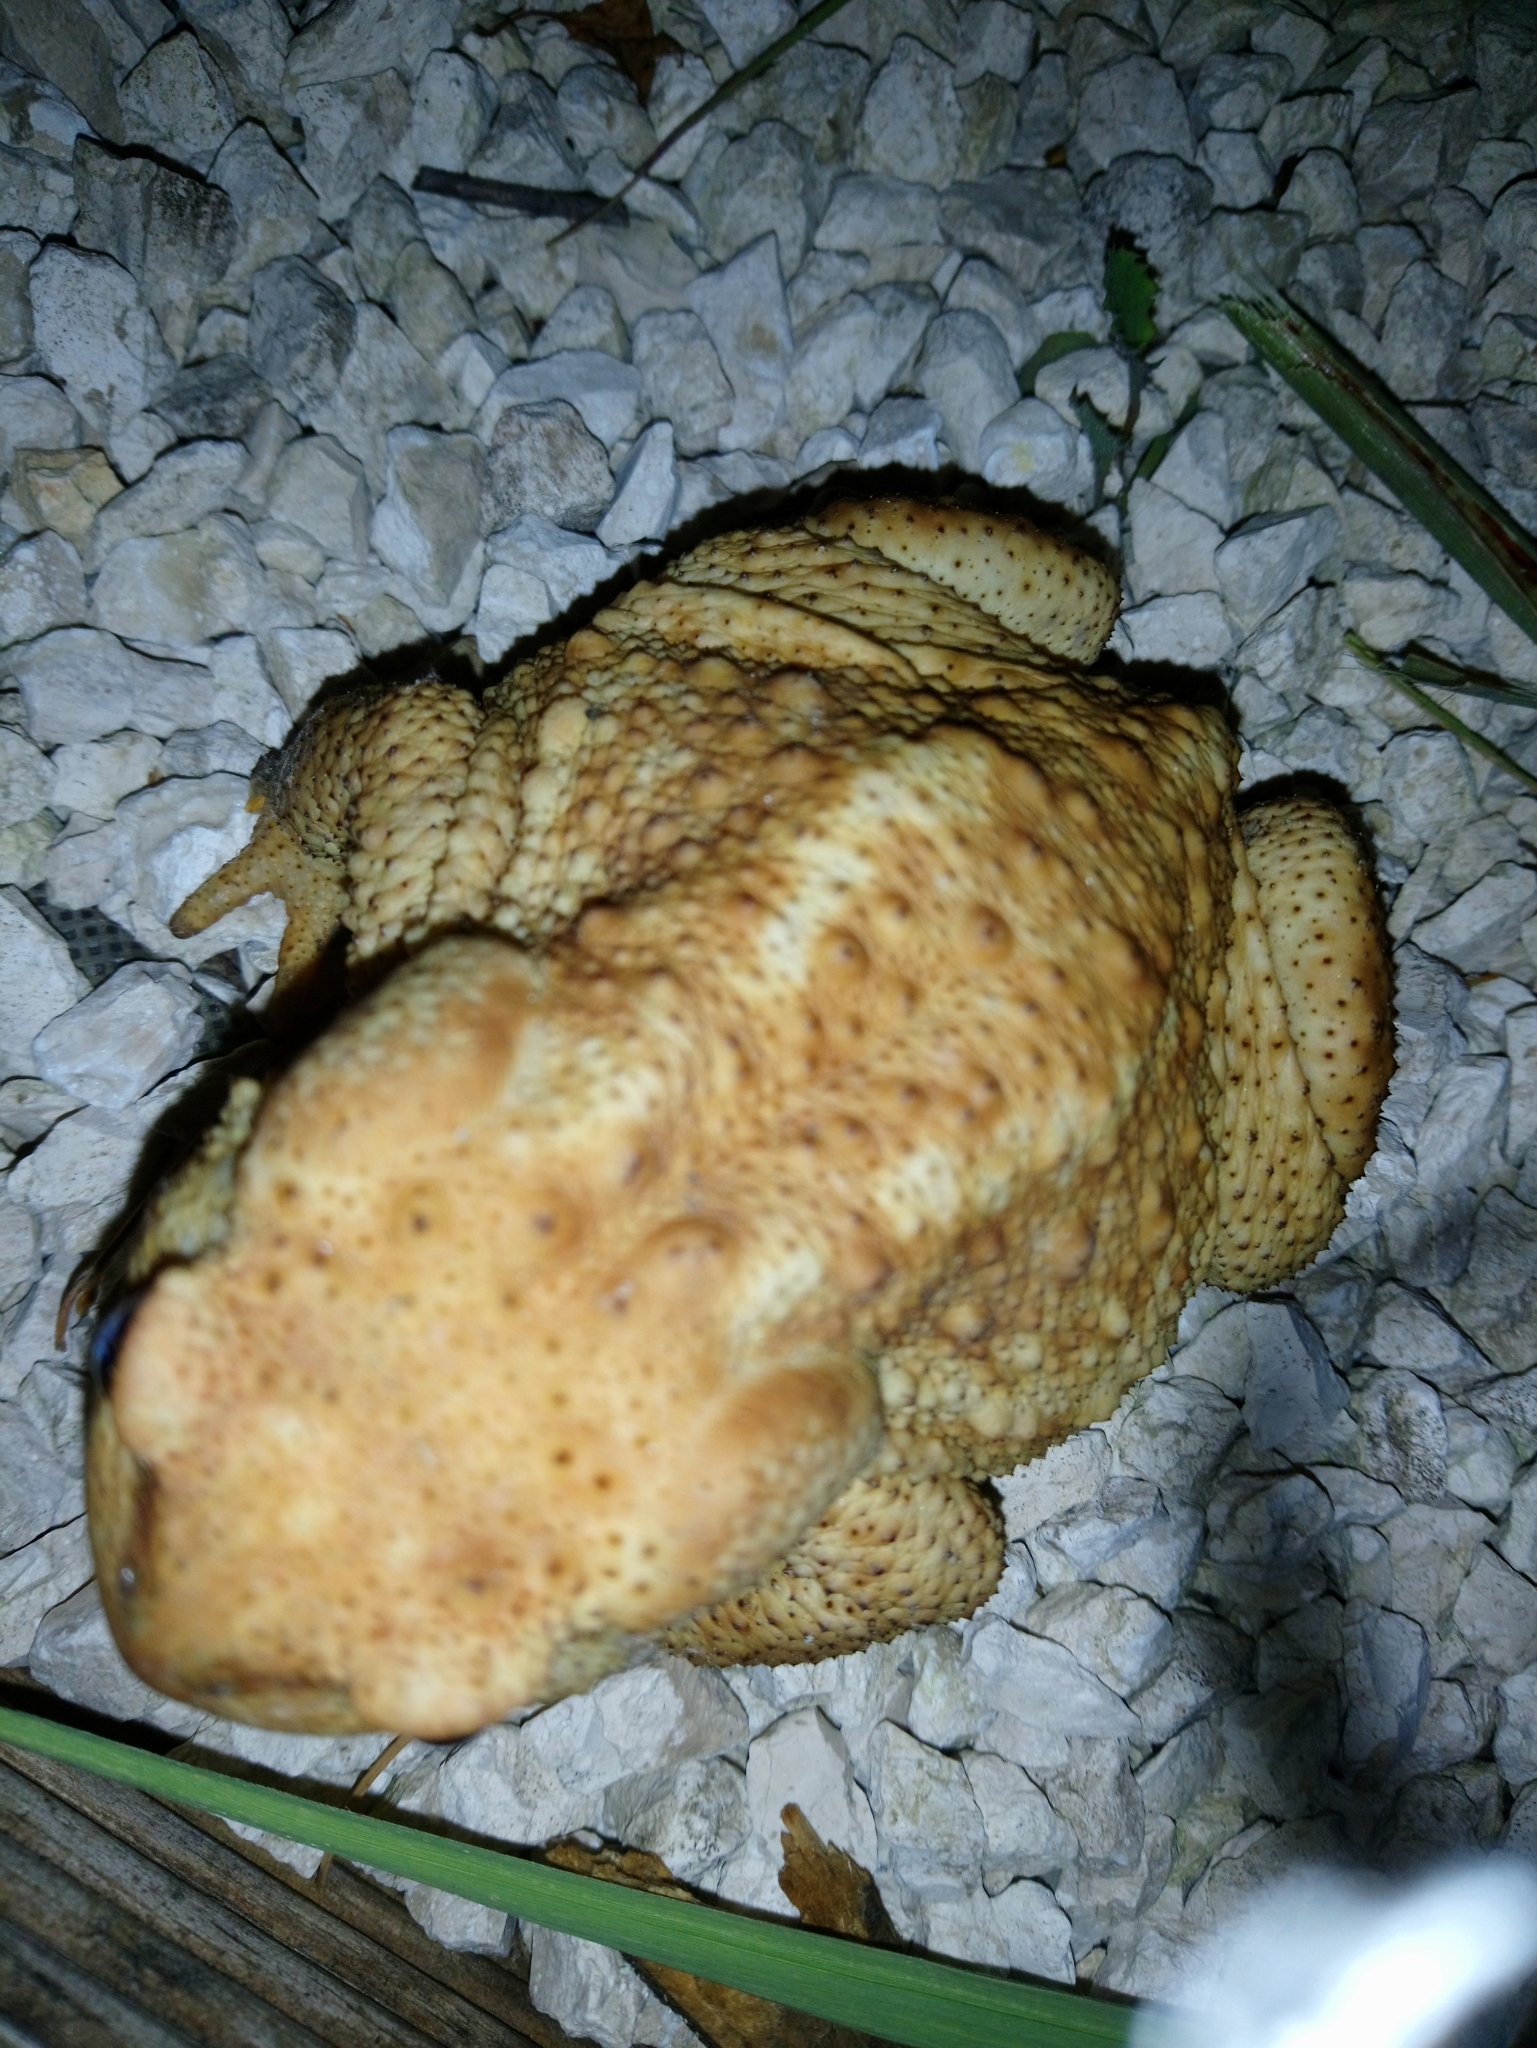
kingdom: Animalia
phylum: Chordata
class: Amphibia
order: Anura
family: Bufonidae
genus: Bufo
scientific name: Bufo spinosus
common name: Western common toad
